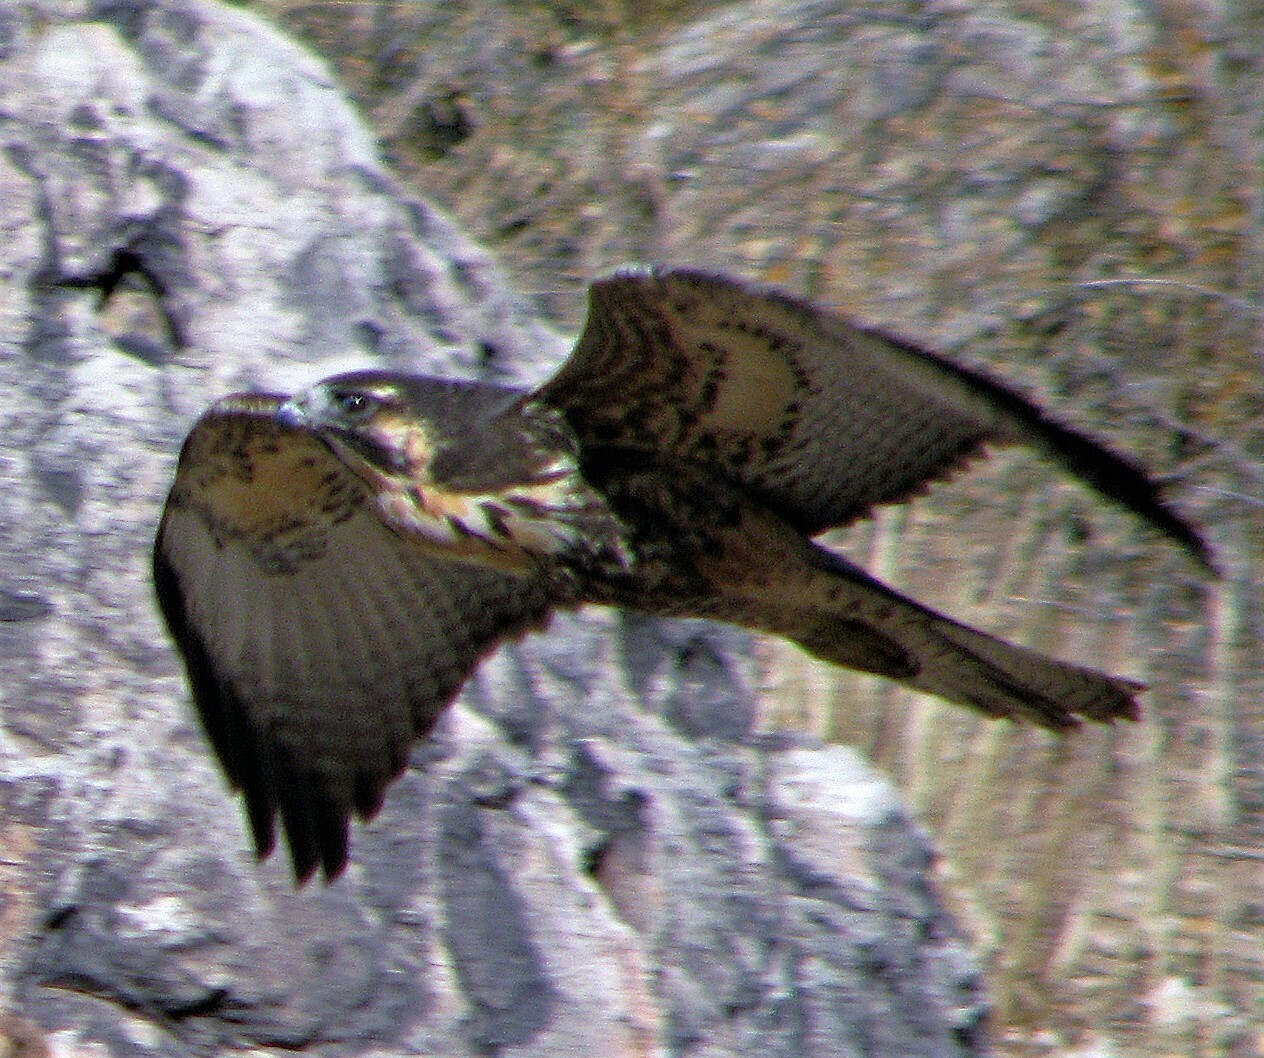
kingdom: Animalia
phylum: Chordata
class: Aves
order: Accipitriformes
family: Accipitridae
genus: Buteo
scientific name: Buteo polyosoma
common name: Variable hawk
